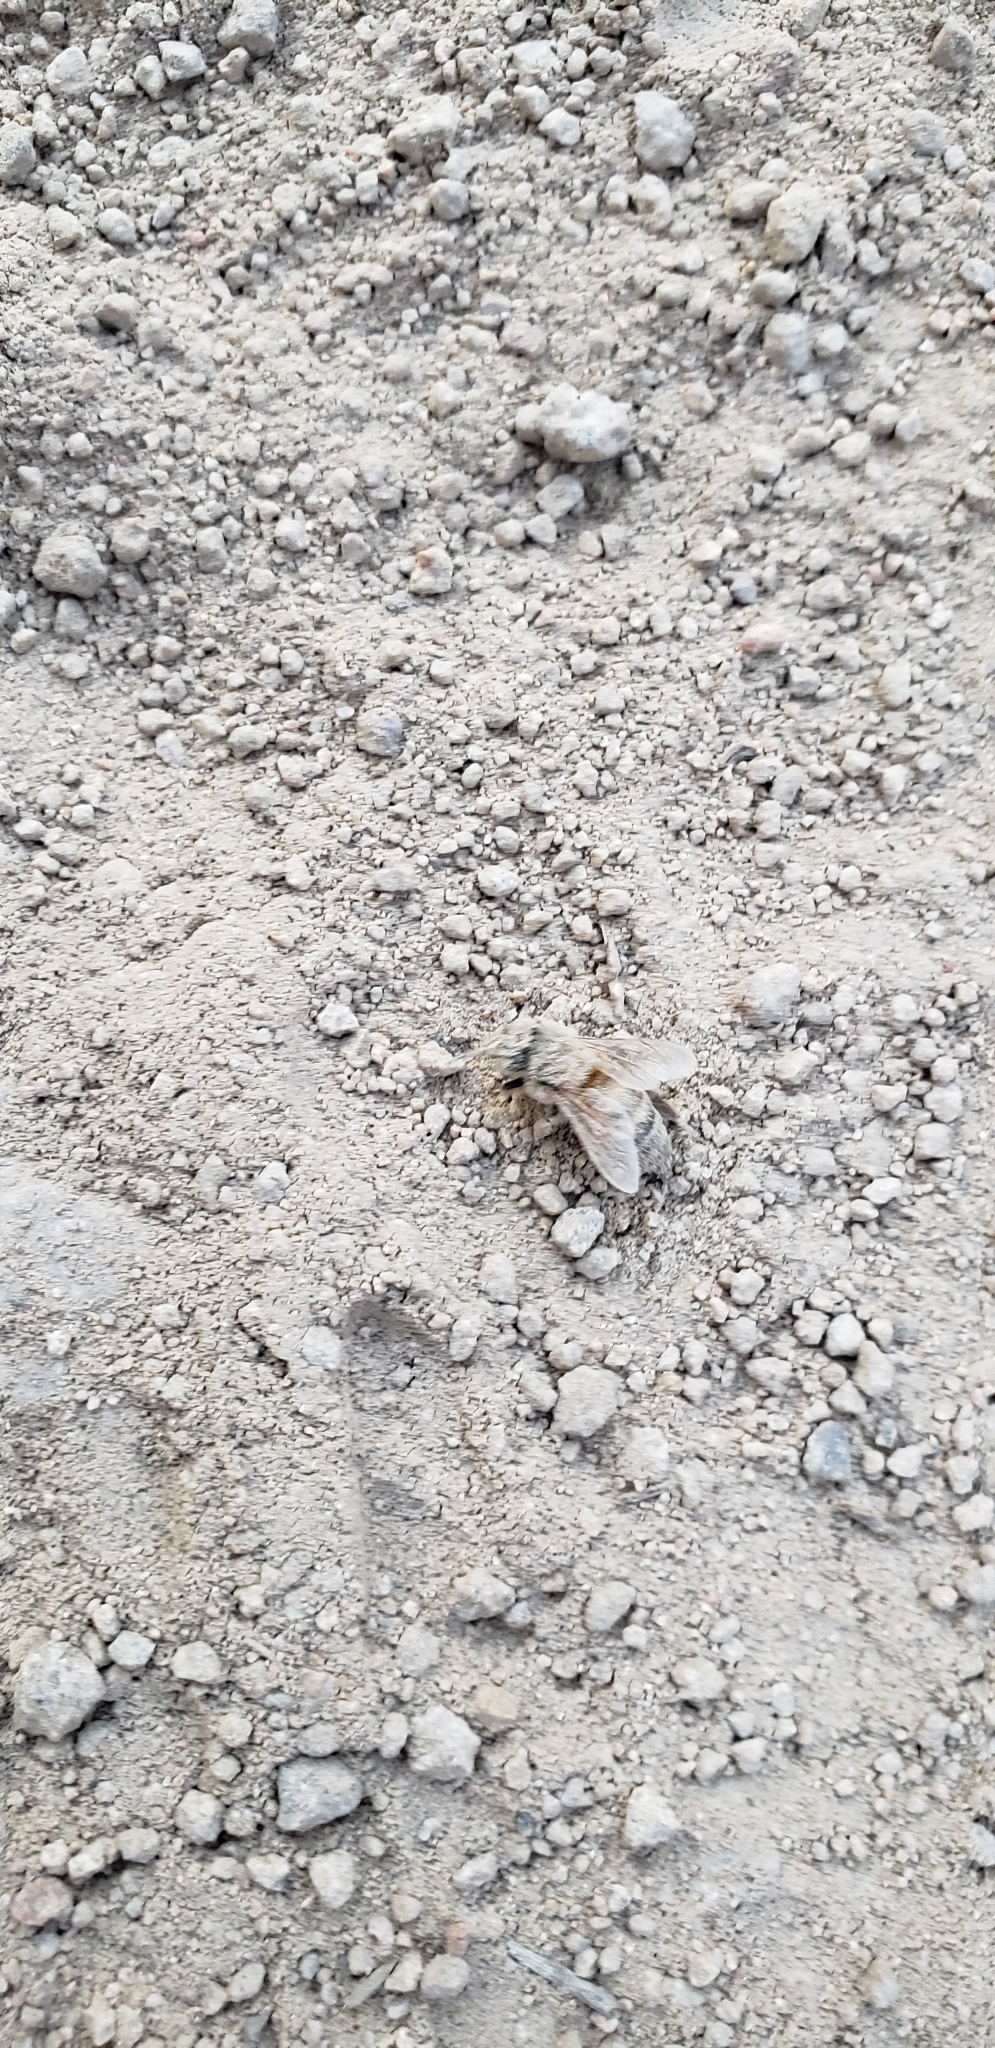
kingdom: Animalia
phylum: Arthropoda
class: Insecta
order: Hymenoptera
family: Apidae
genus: Apis
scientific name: Apis mellifera
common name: Honey bee
